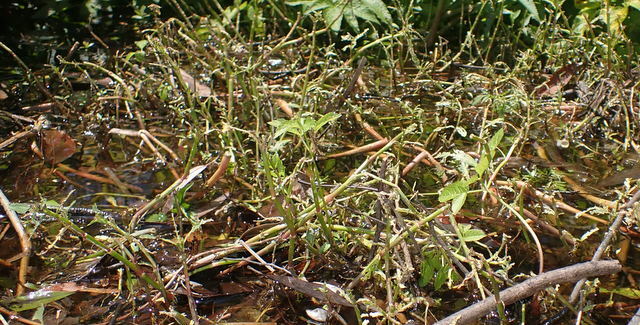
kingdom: Plantae
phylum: Tracheophyta
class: Magnoliopsida
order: Caryophyllales
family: Amaranthaceae
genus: Alternanthera
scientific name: Alternanthera philoxeroides
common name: Alligatorweed
